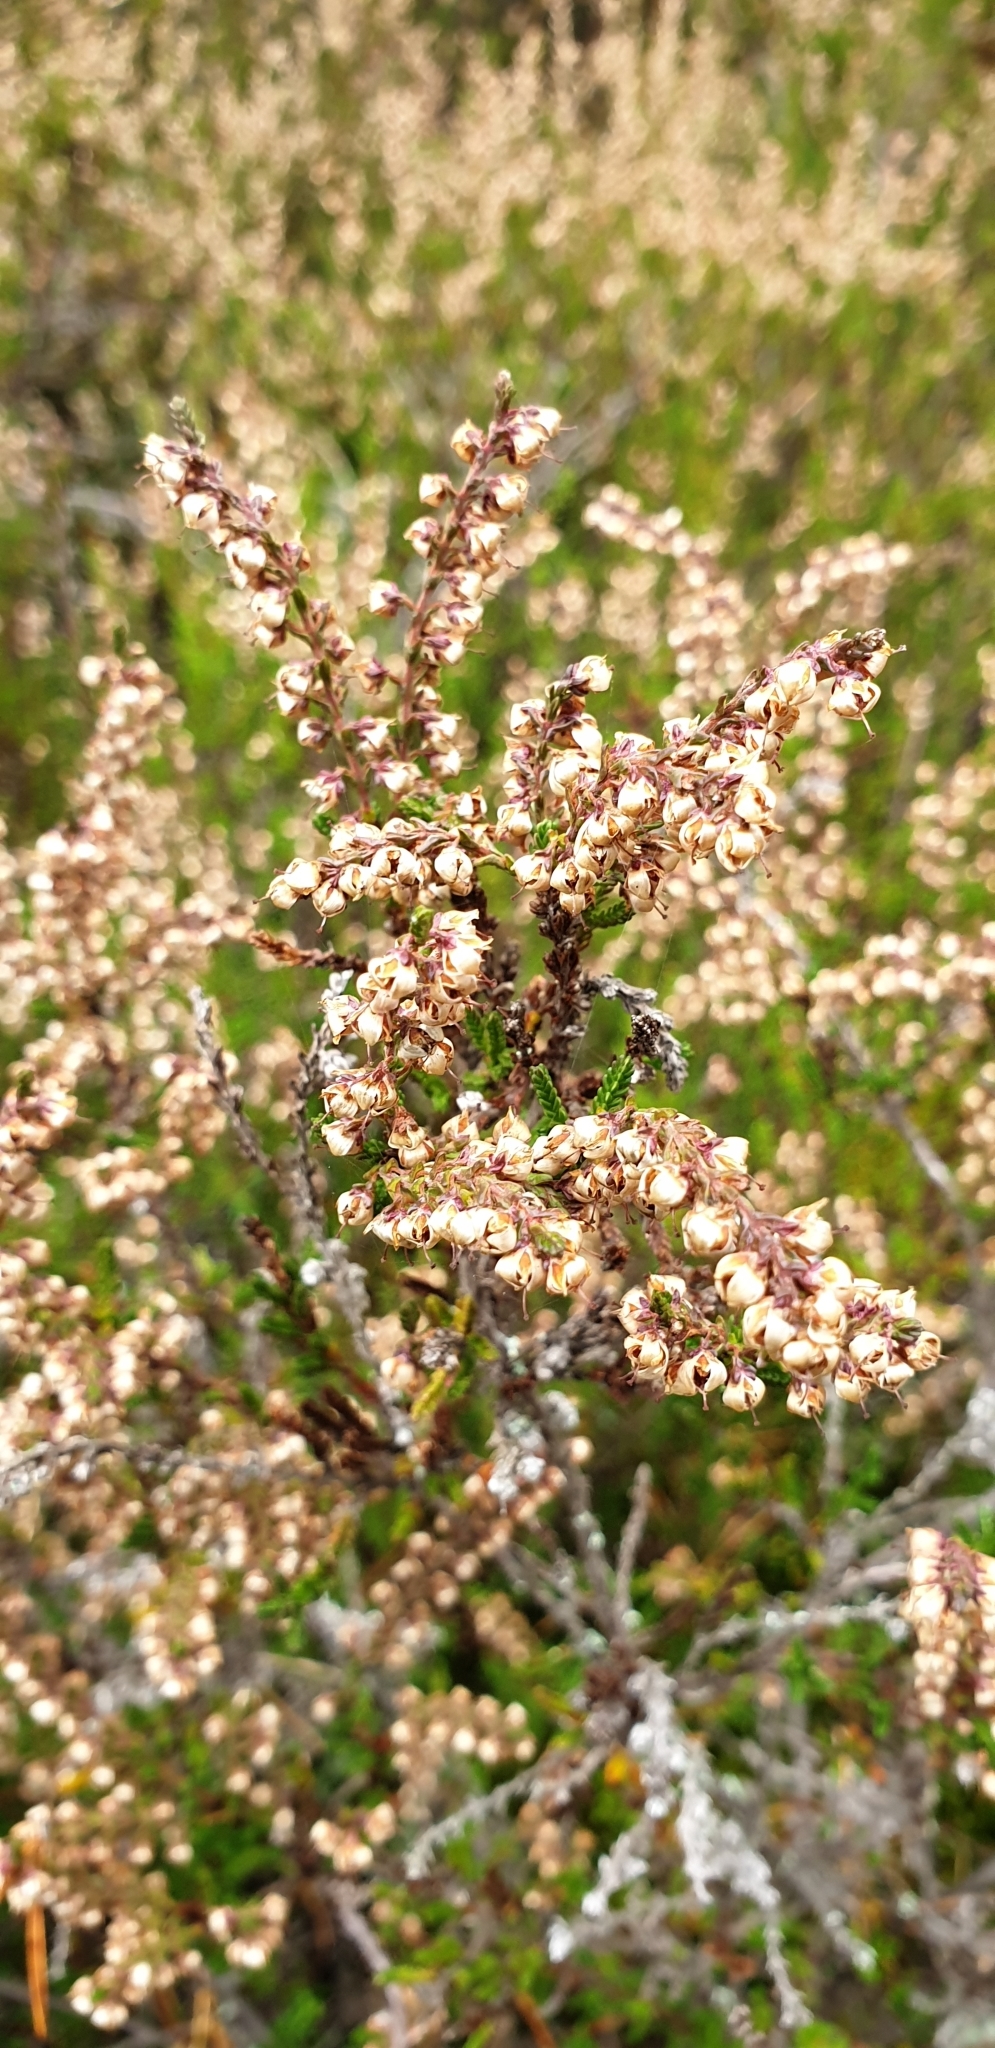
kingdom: Plantae
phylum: Tracheophyta
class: Magnoliopsida
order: Ericales
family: Ericaceae
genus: Calluna
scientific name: Calluna vulgaris
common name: Heather
